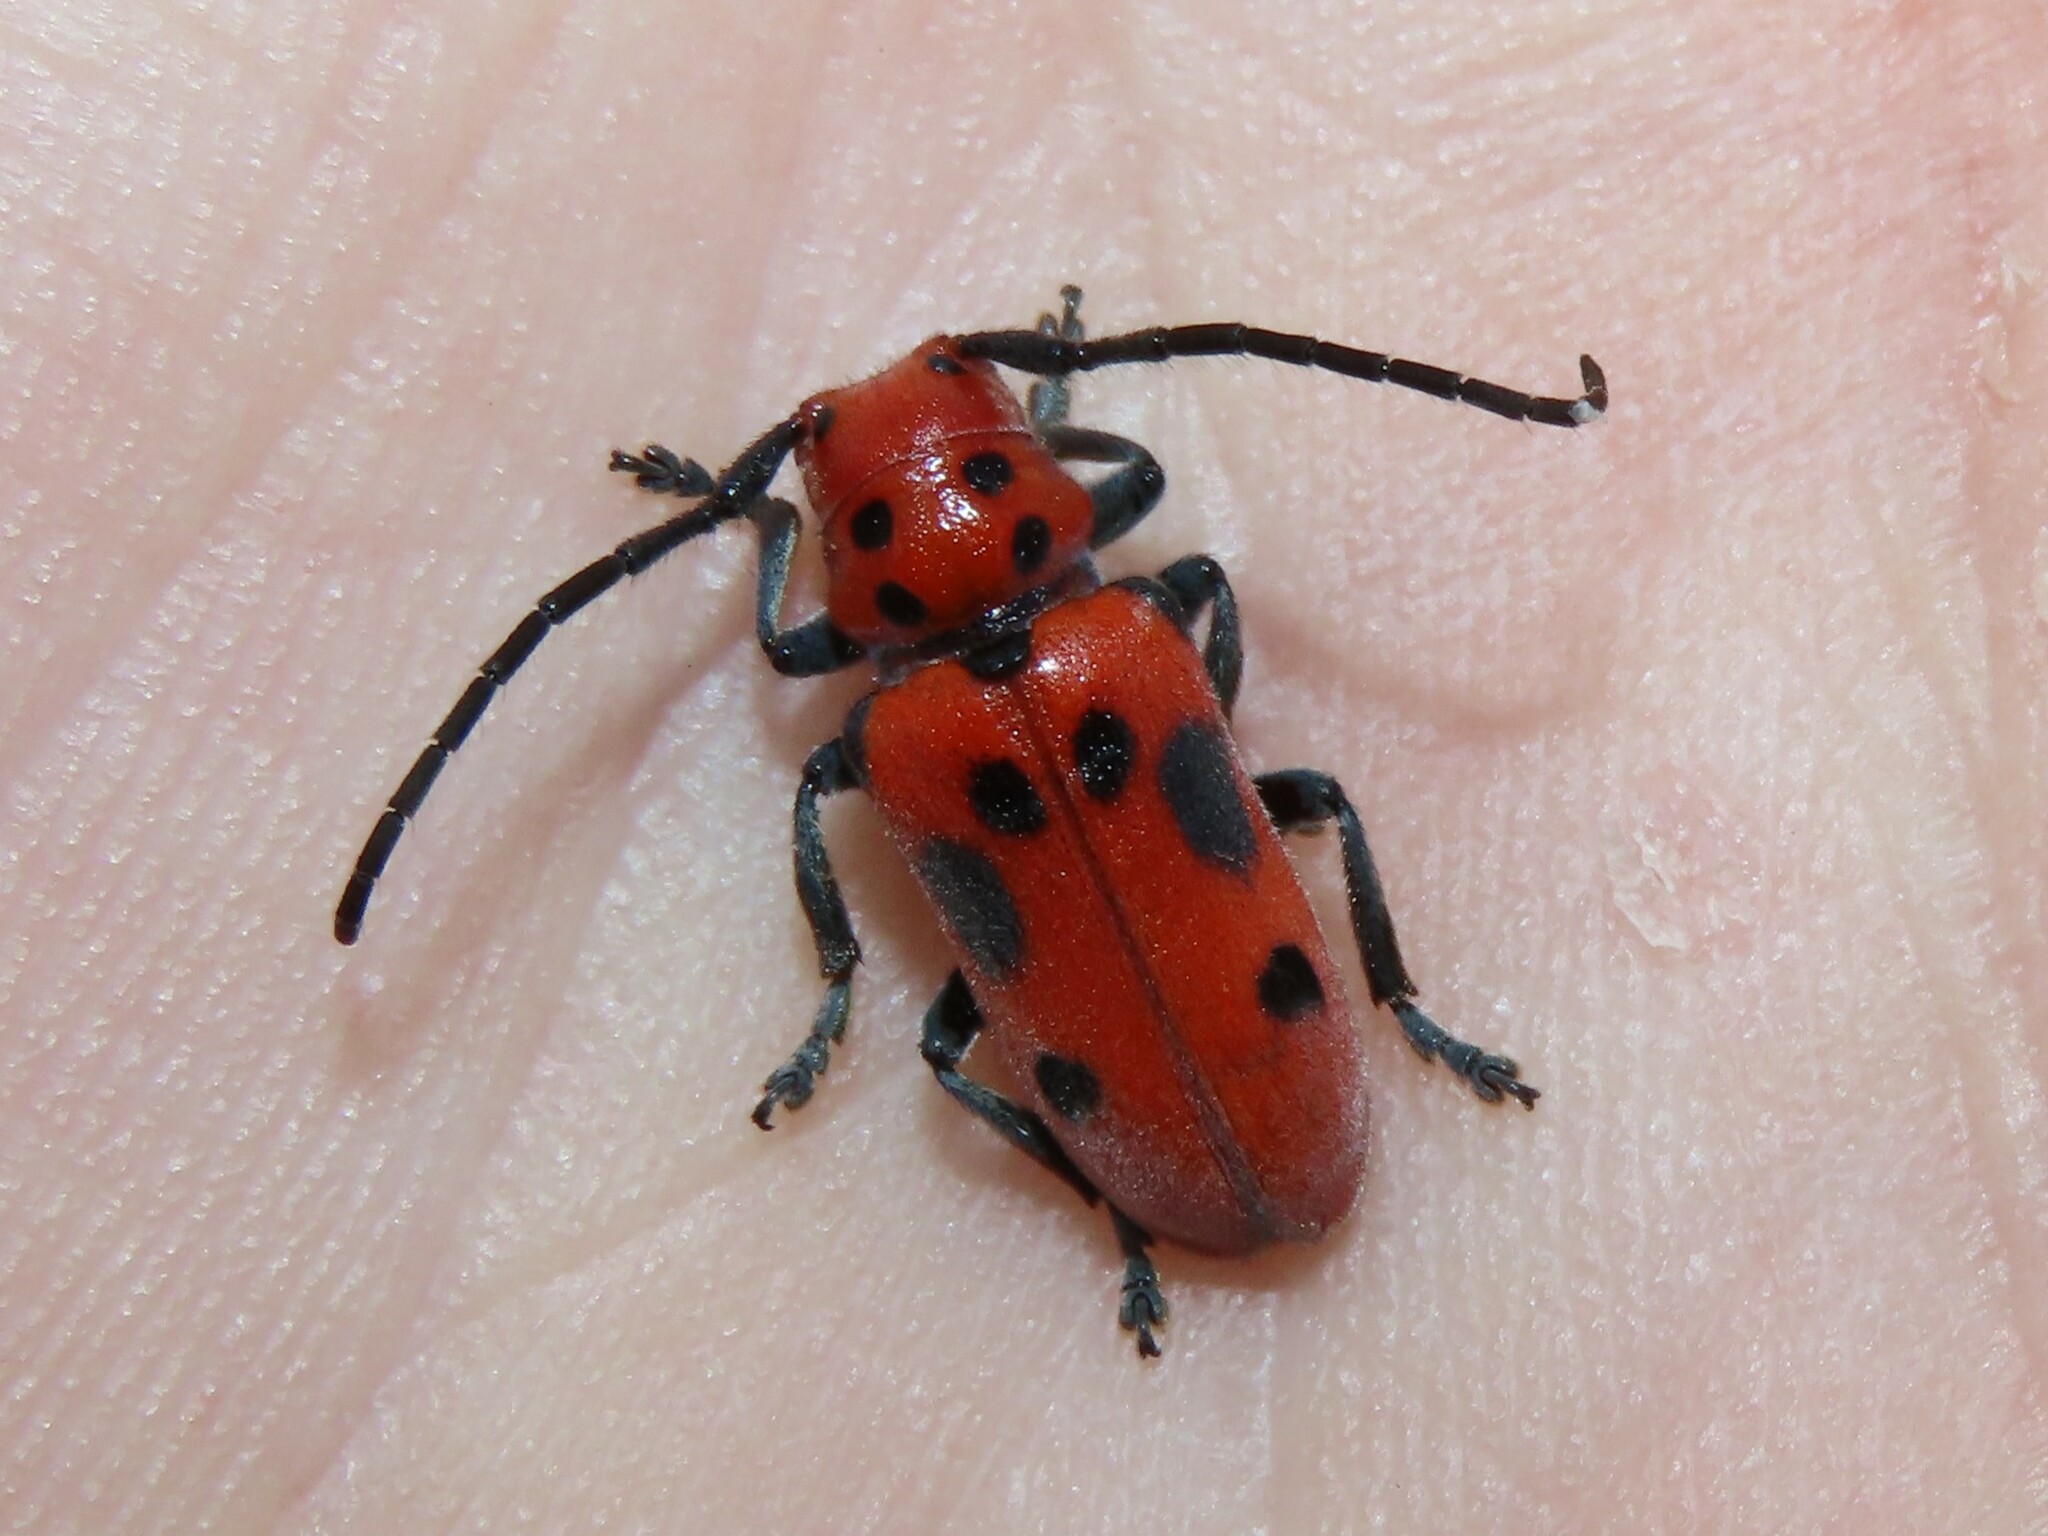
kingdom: Animalia
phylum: Arthropoda
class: Insecta
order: Coleoptera
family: Cerambycidae
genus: Tetraopes
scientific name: Tetraopes tetrophthalmus
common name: Red milkweed beetle
